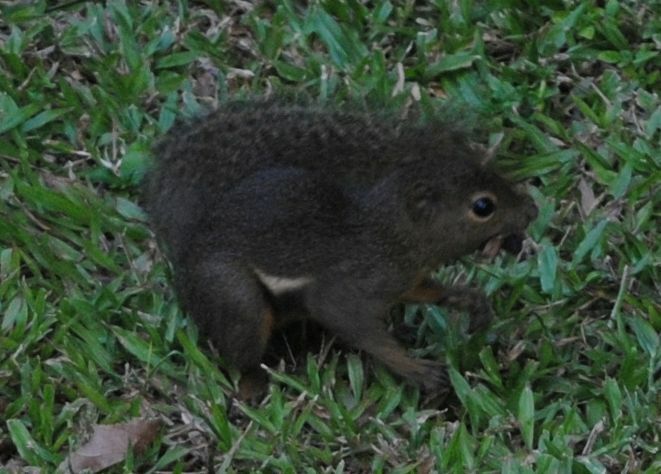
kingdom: Animalia
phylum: Chordata
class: Mammalia
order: Rodentia
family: Sciuridae
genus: Callosciurus
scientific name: Callosciurus notatus
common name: Plantain squirrel
